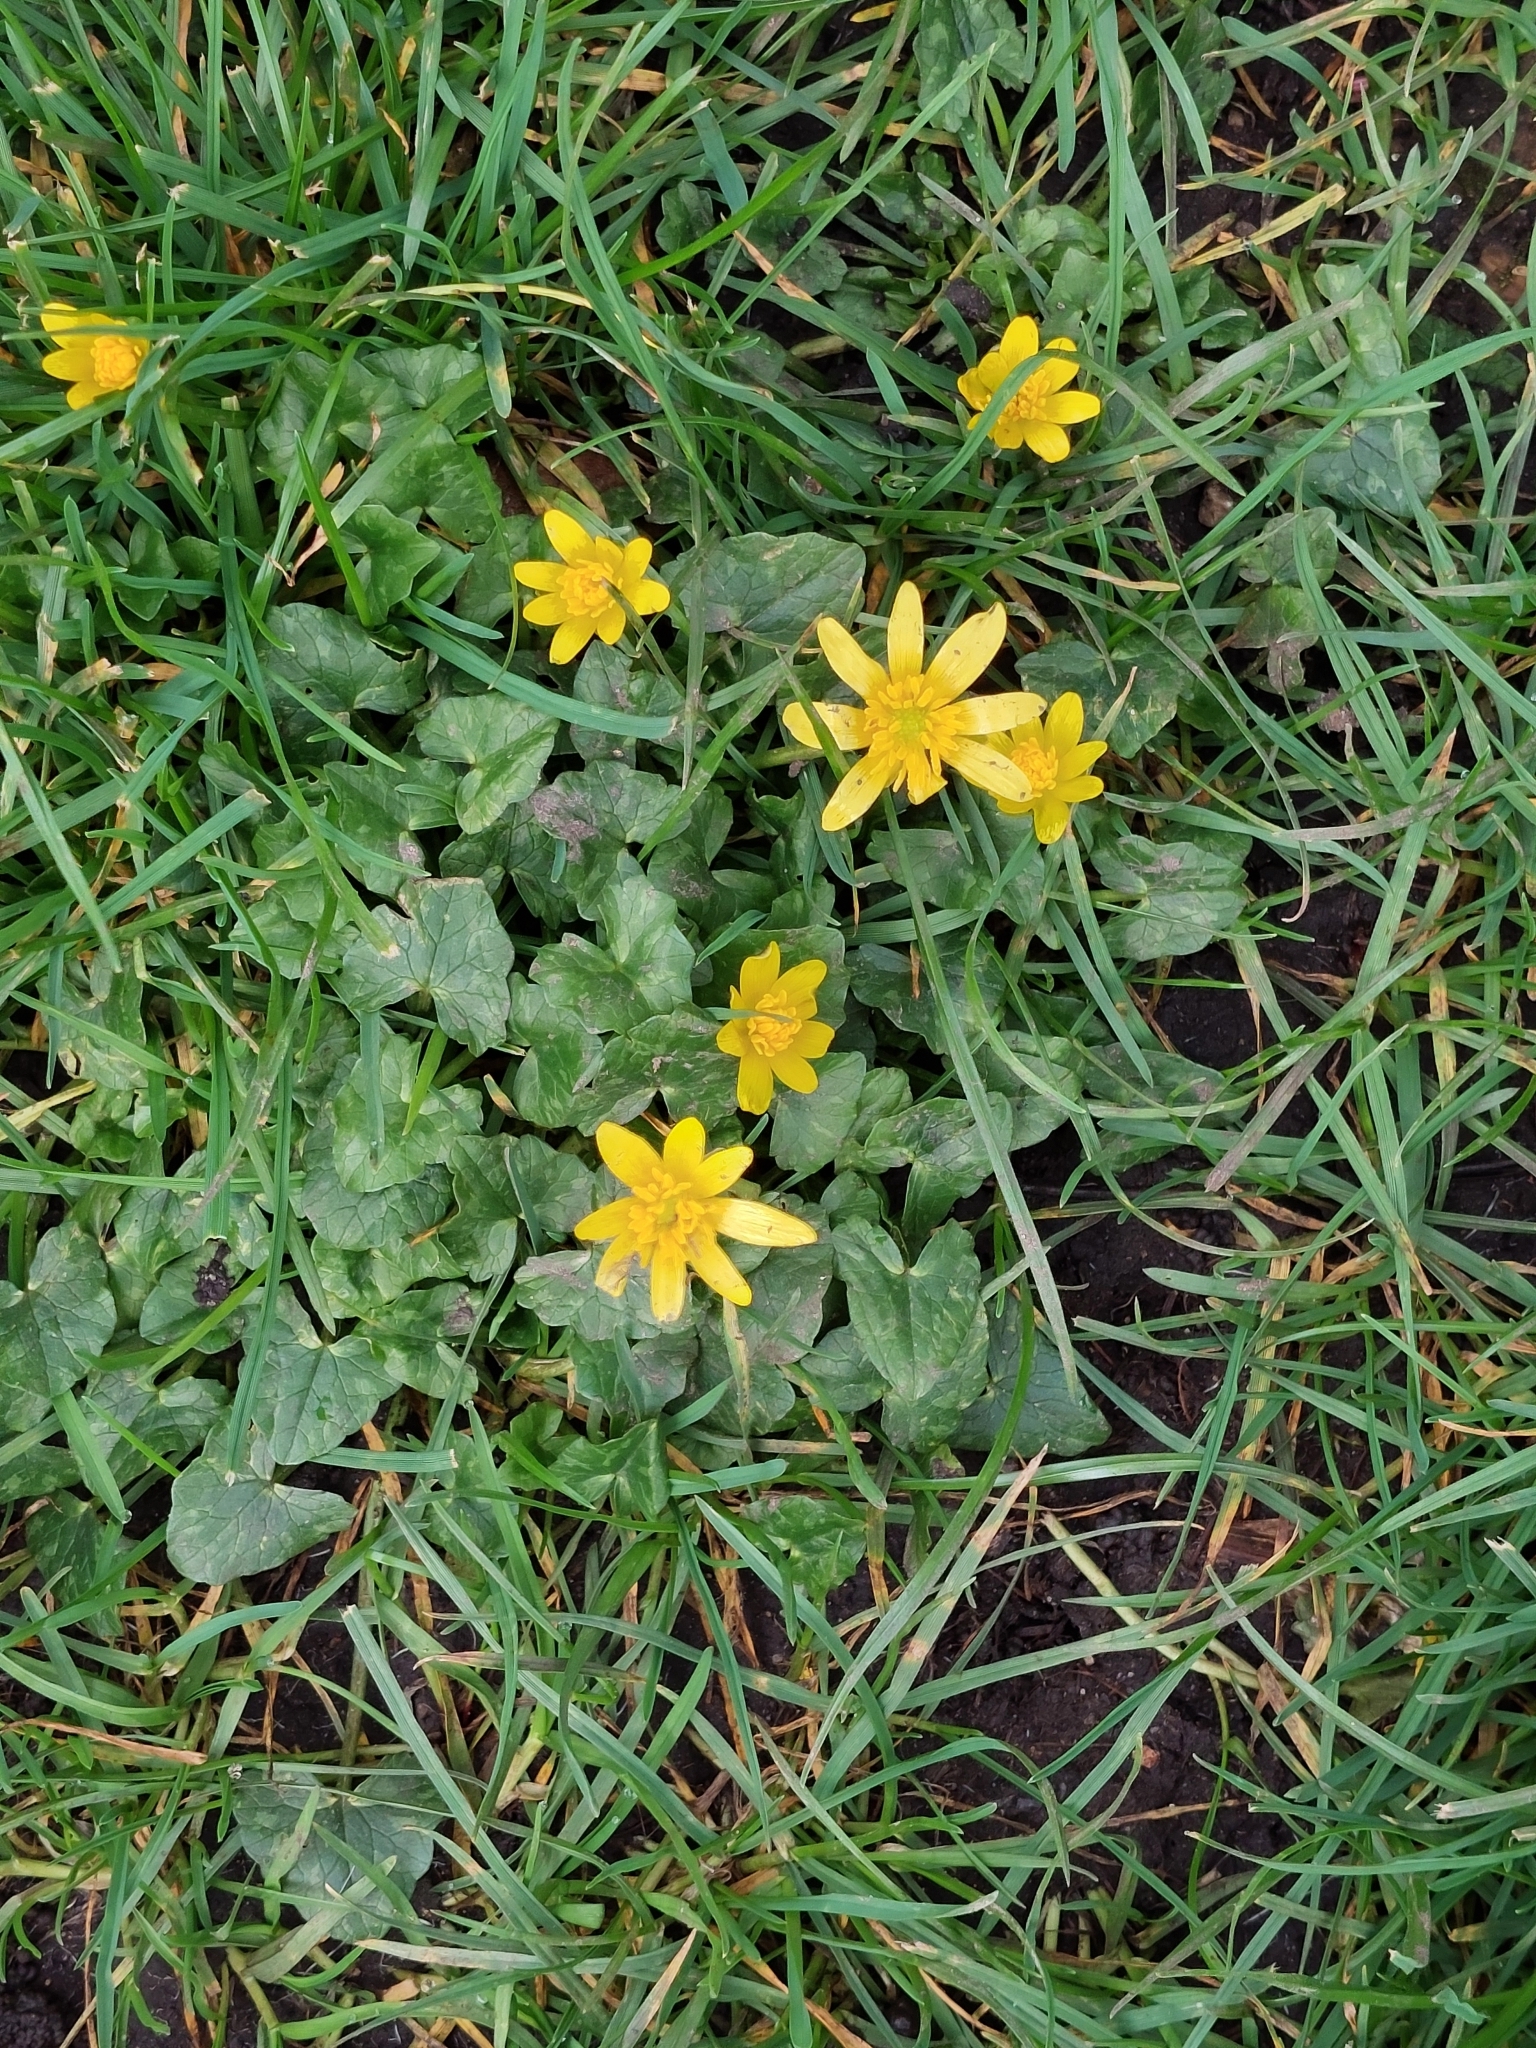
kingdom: Plantae
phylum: Tracheophyta
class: Magnoliopsida
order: Ranunculales
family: Ranunculaceae
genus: Ficaria
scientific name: Ficaria verna
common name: Lesser celandine
